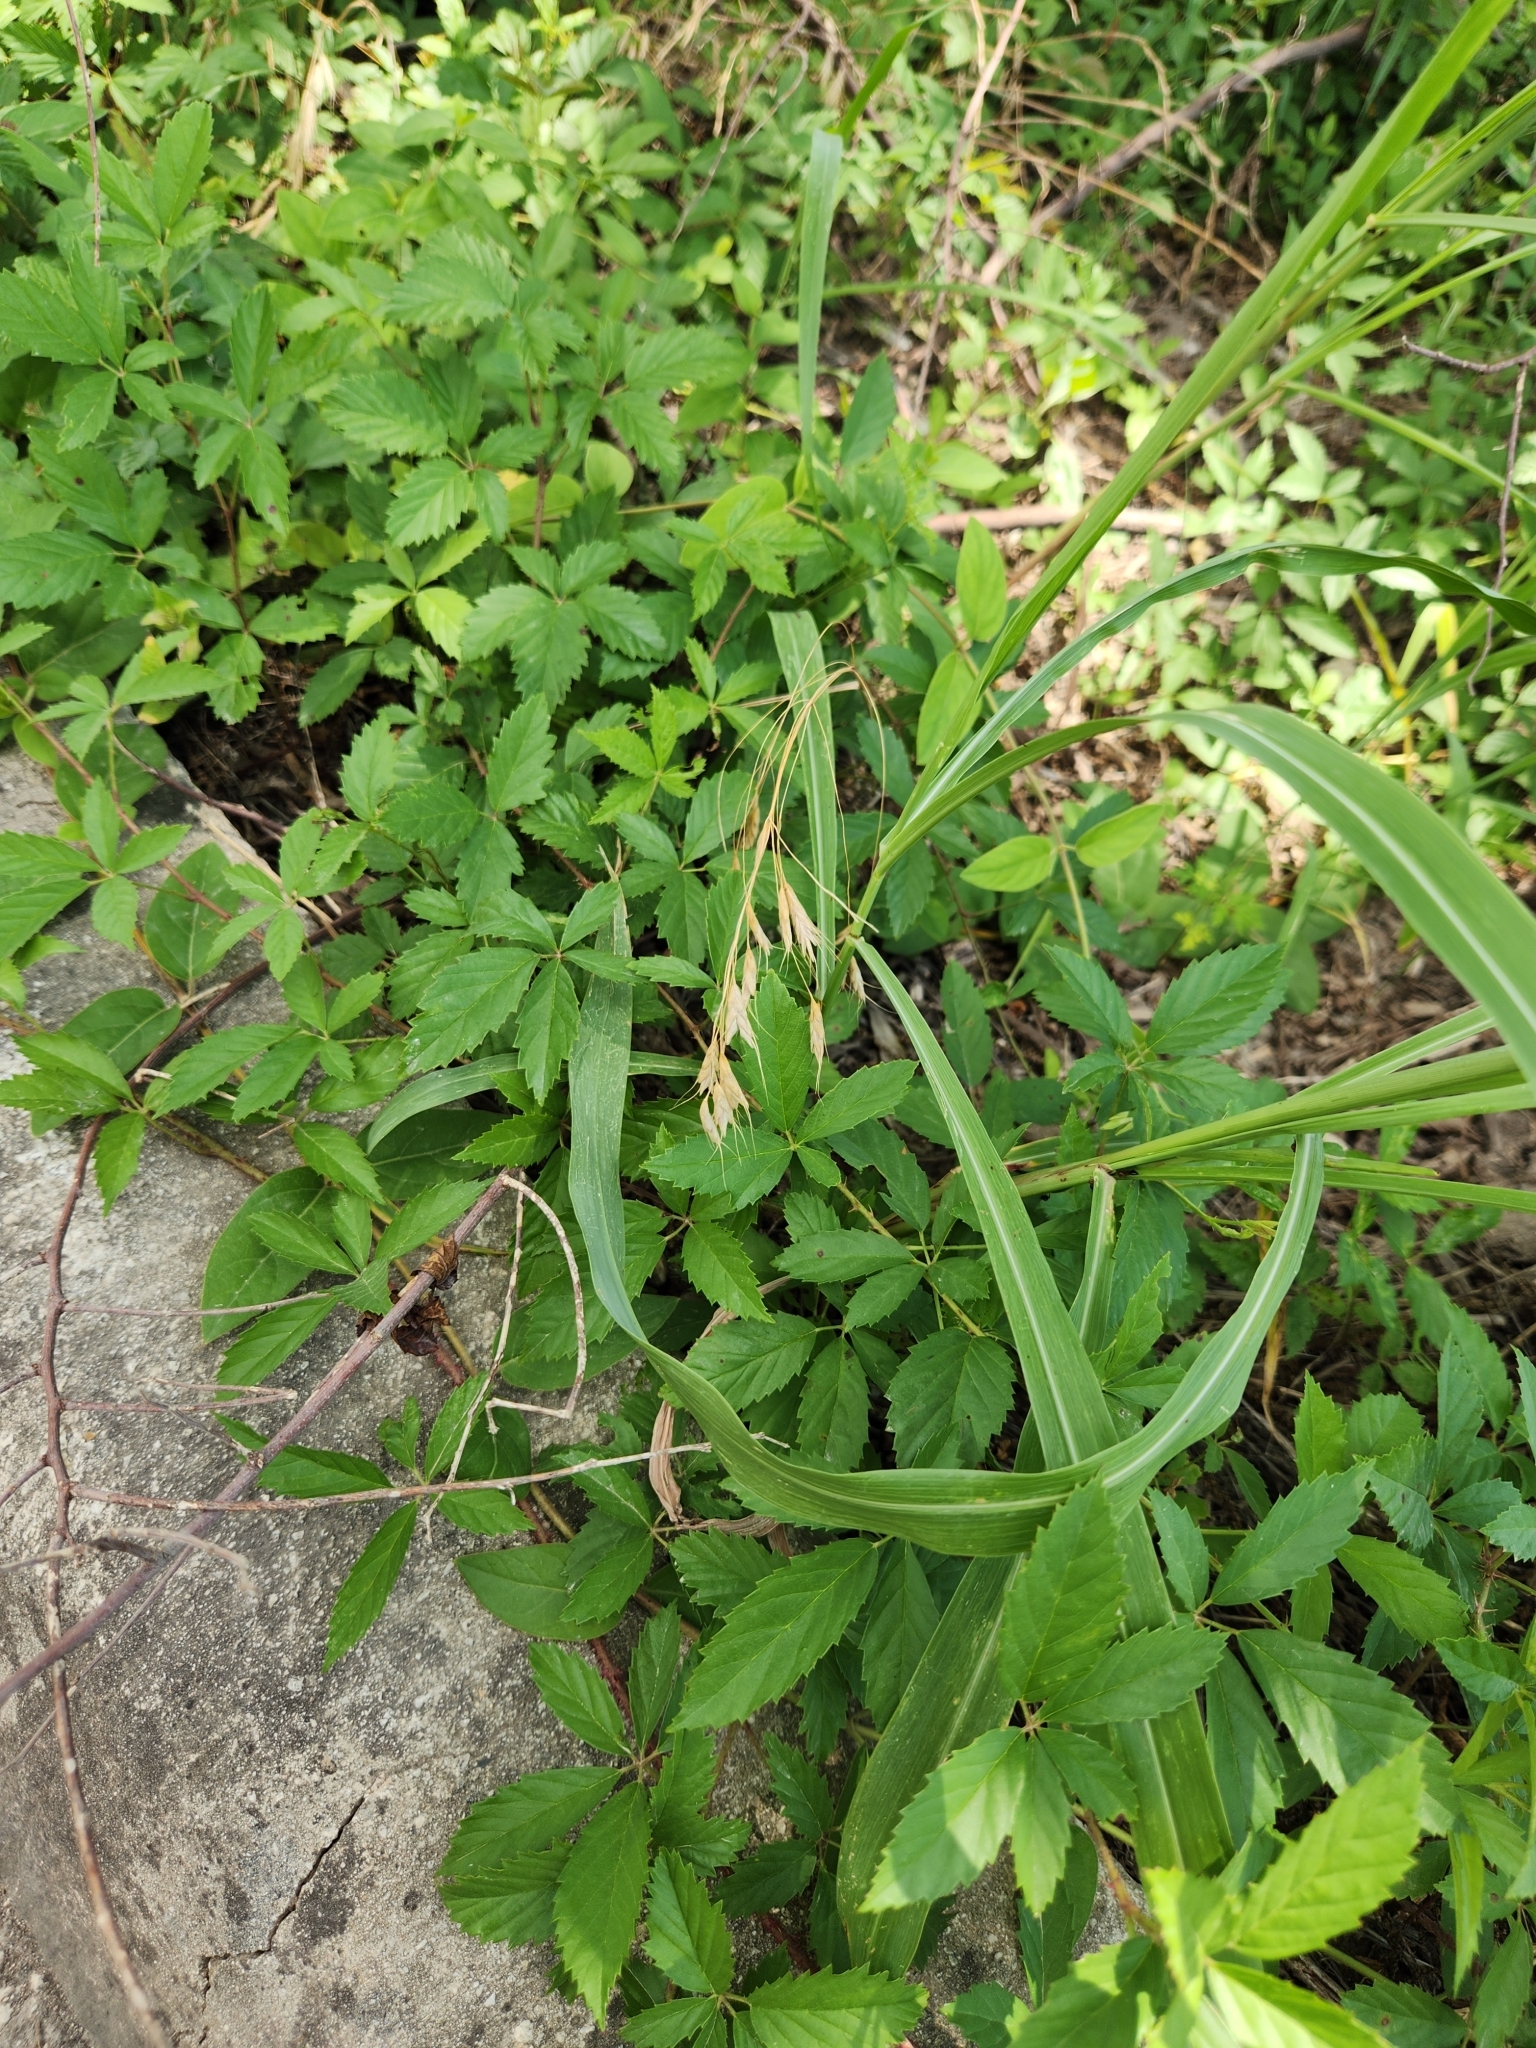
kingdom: Plantae
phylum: Tracheophyta
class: Magnoliopsida
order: Rosales
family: Rosaceae
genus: Rubus
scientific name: Rubus trivialis
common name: Southern dewberry
